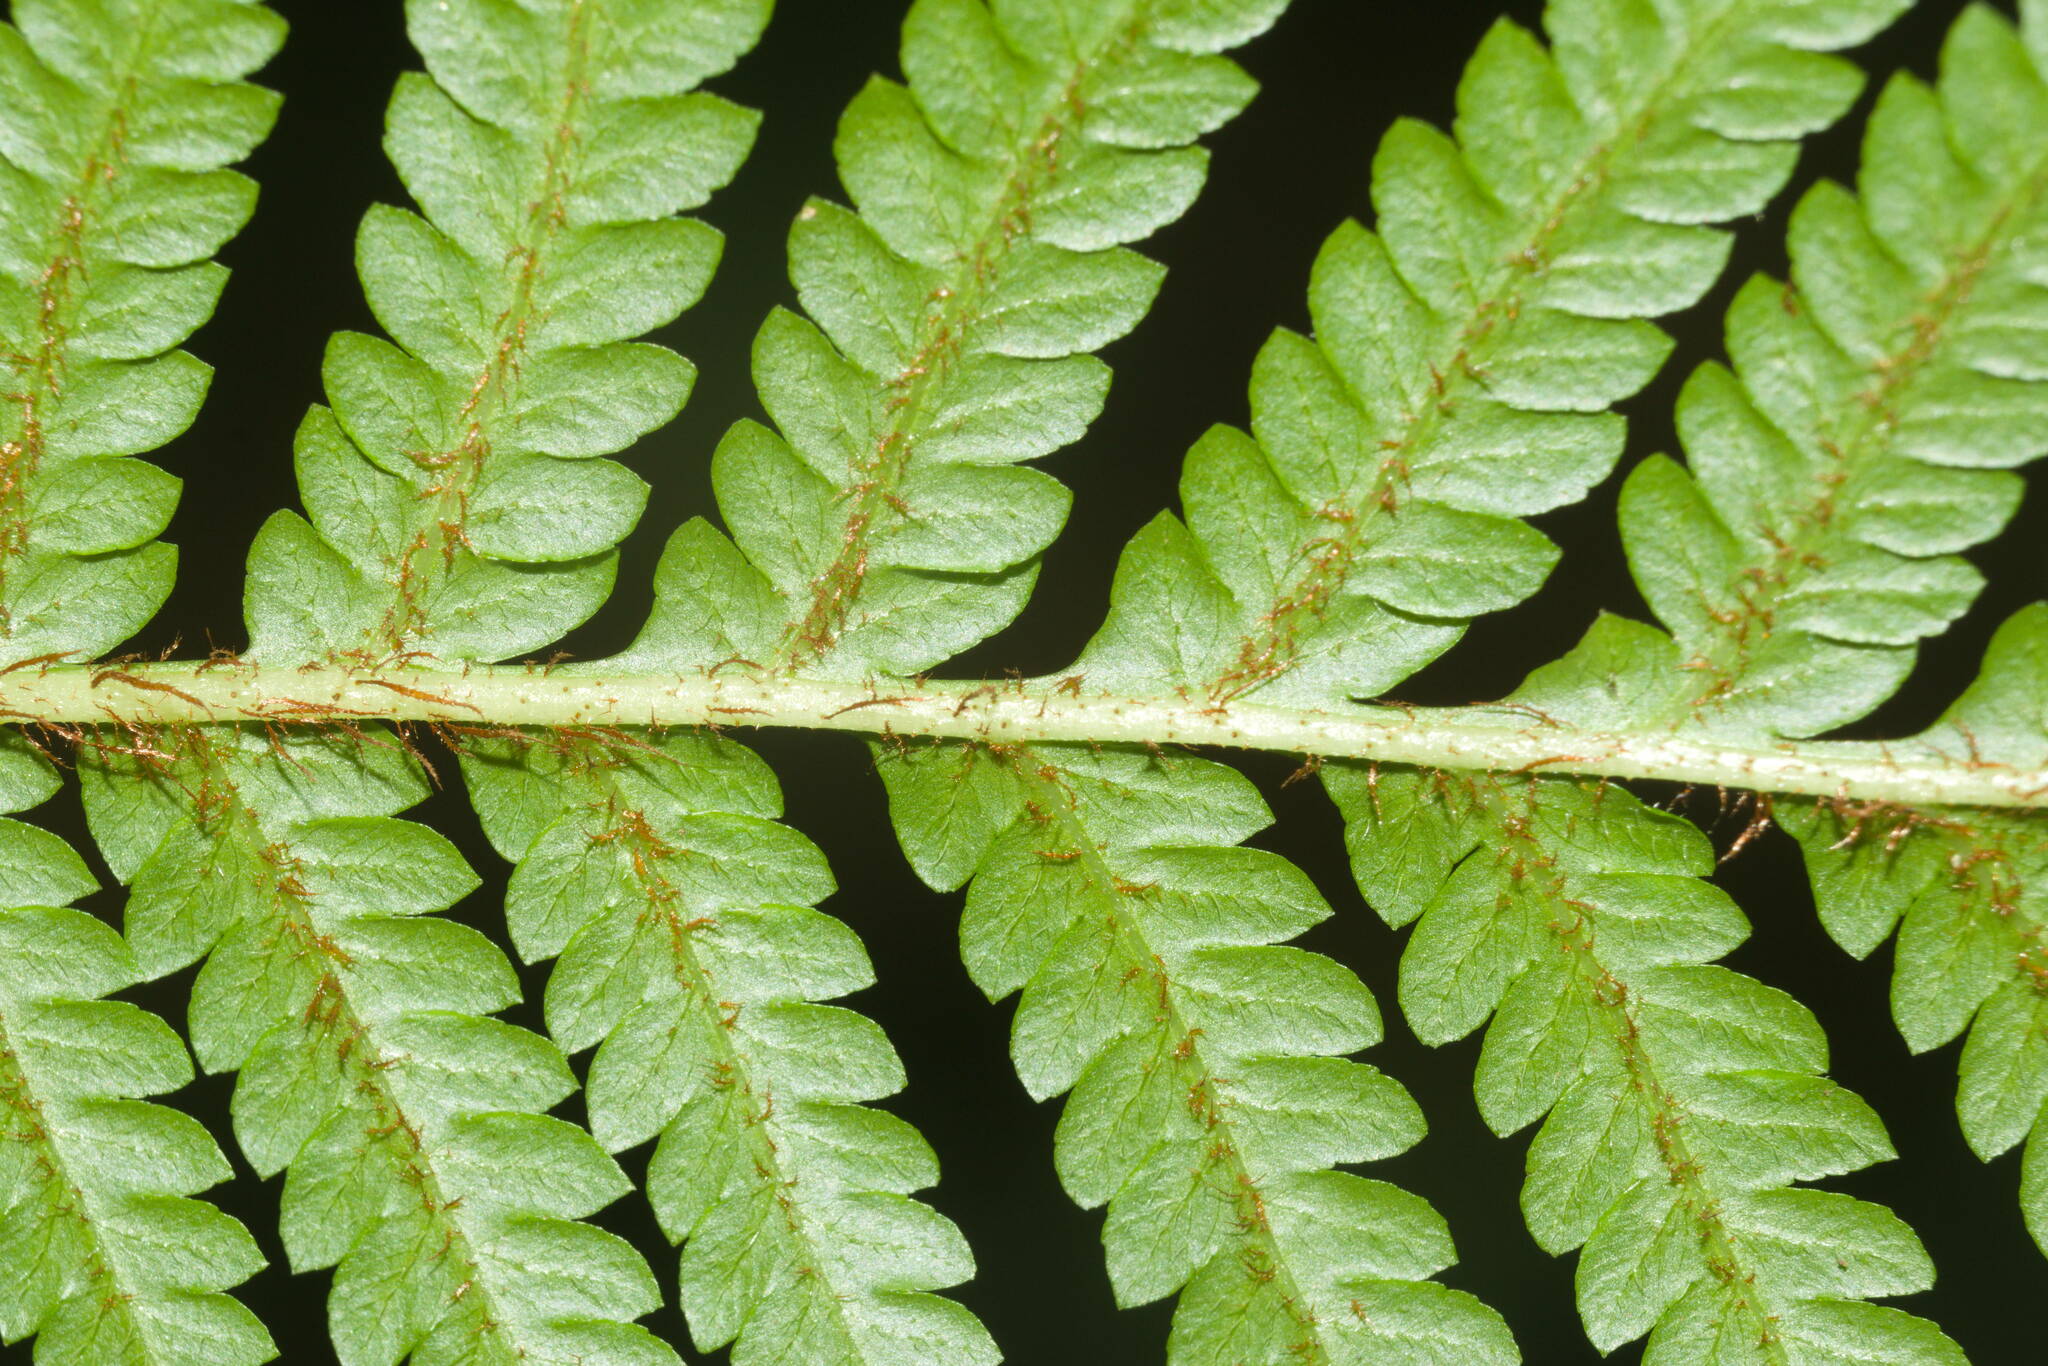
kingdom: Plantae
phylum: Tracheophyta
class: Polypodiopsida
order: Cyatheales
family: Cyatheaceae
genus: Sphaeropteris
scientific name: Sphaeropteris cooperi
